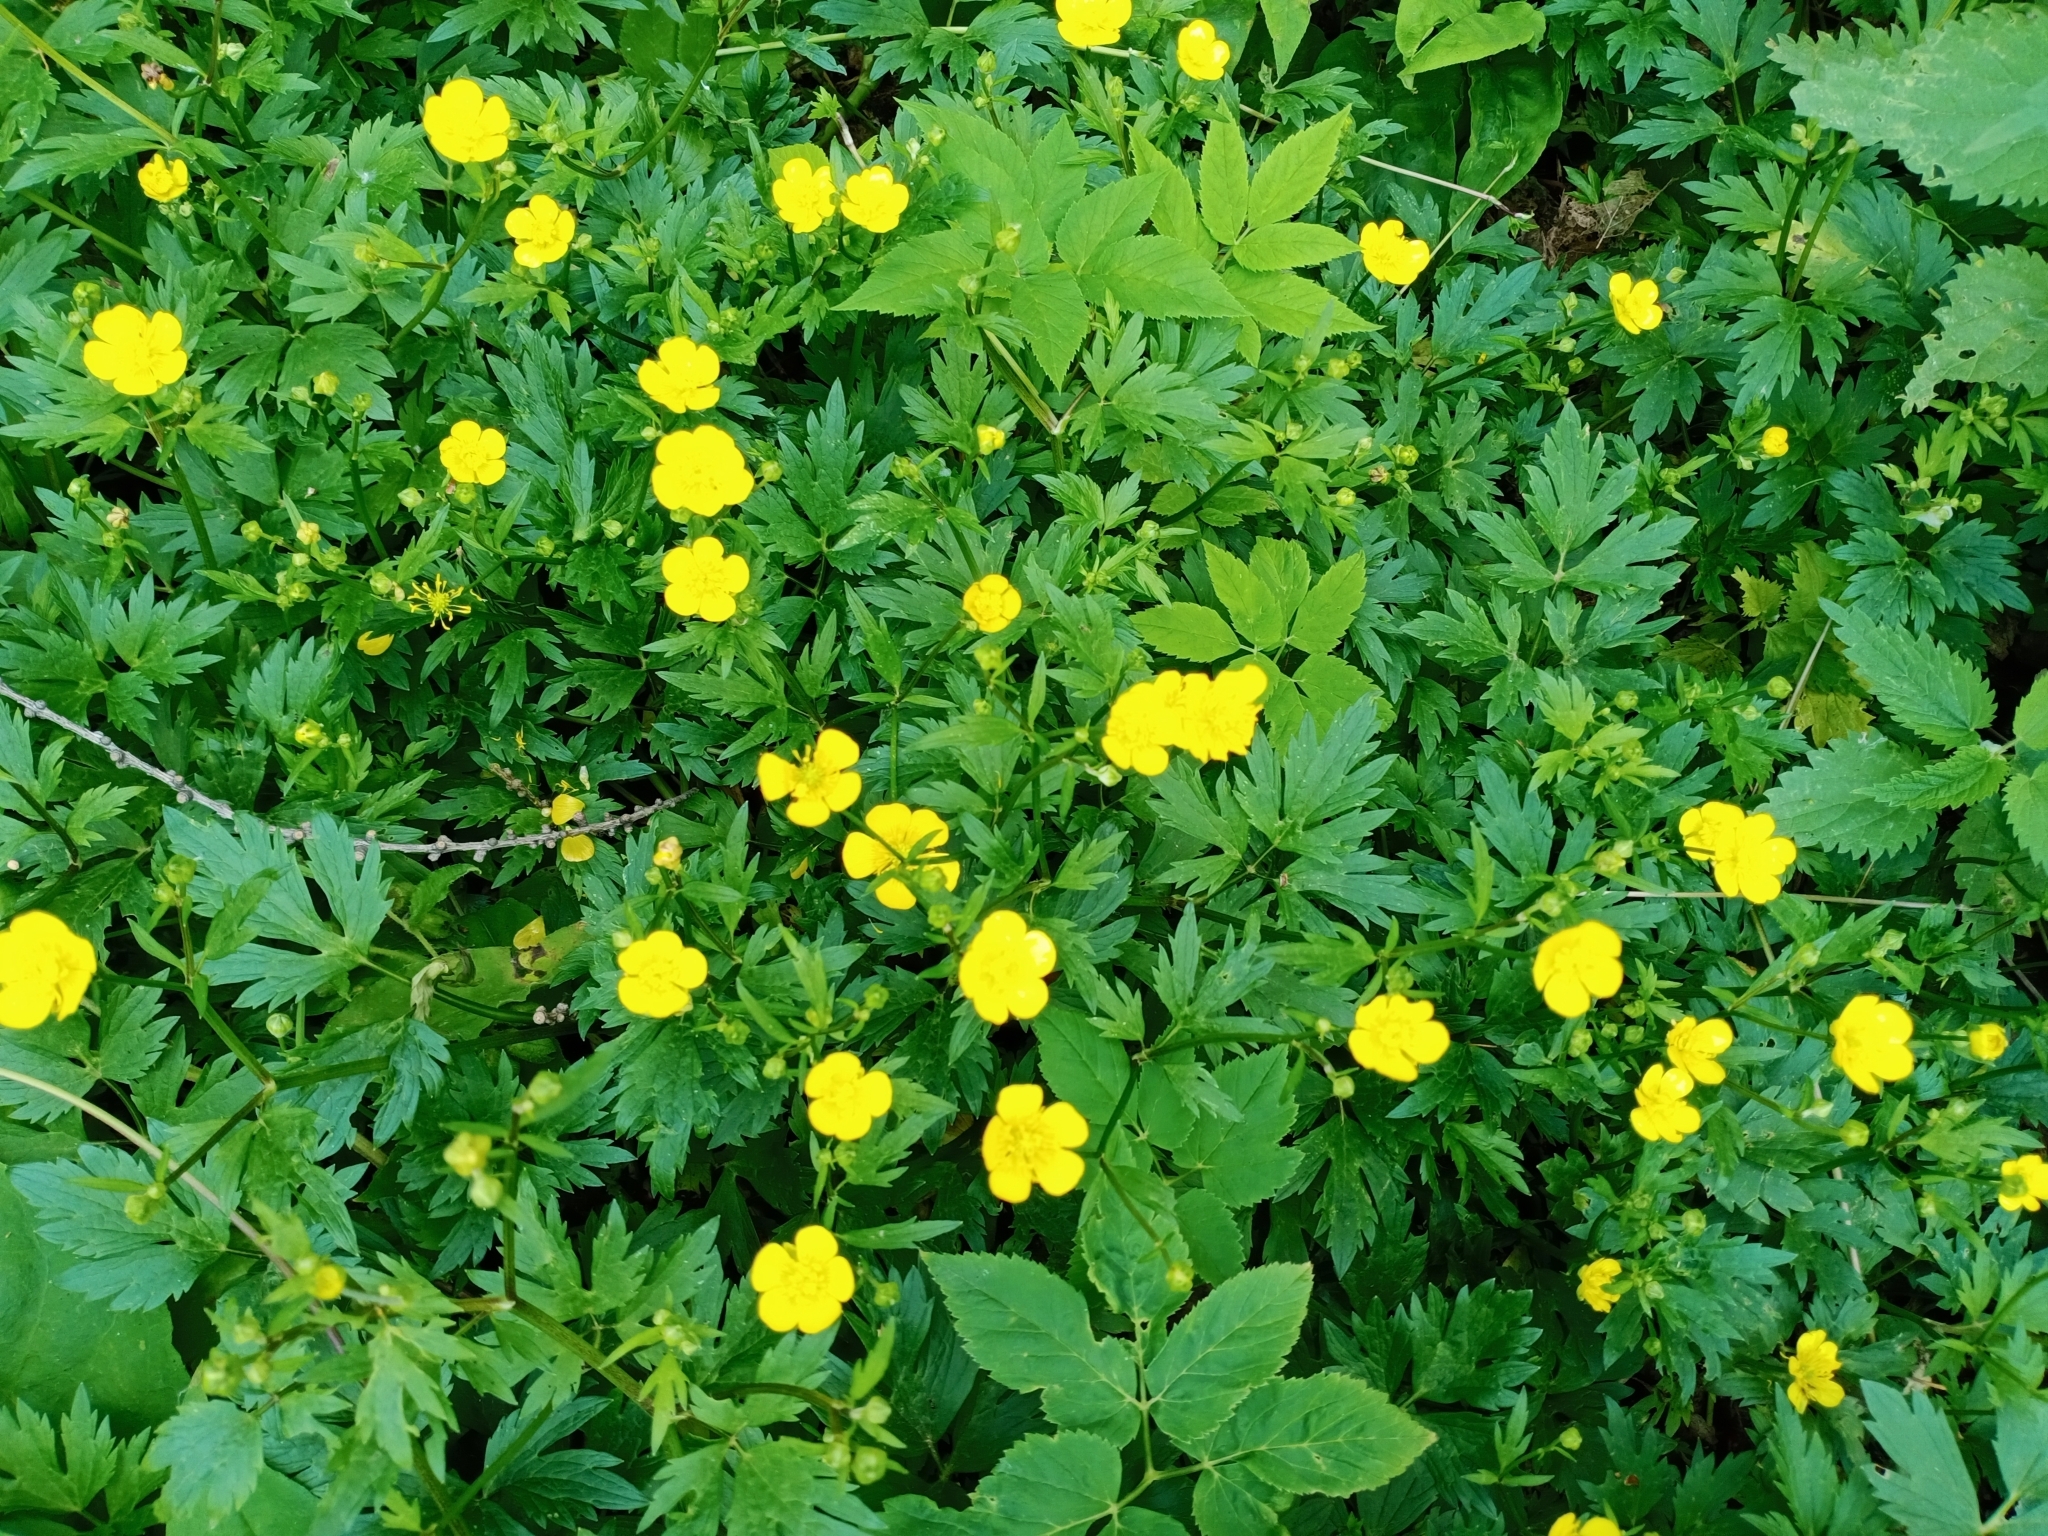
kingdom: Plantae
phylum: Tracheophyta
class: Magnoliopsida
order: Ranunculales
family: Ranunculaceae
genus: Ranunculus
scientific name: Ranunculus repens
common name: Creeping buttercup
